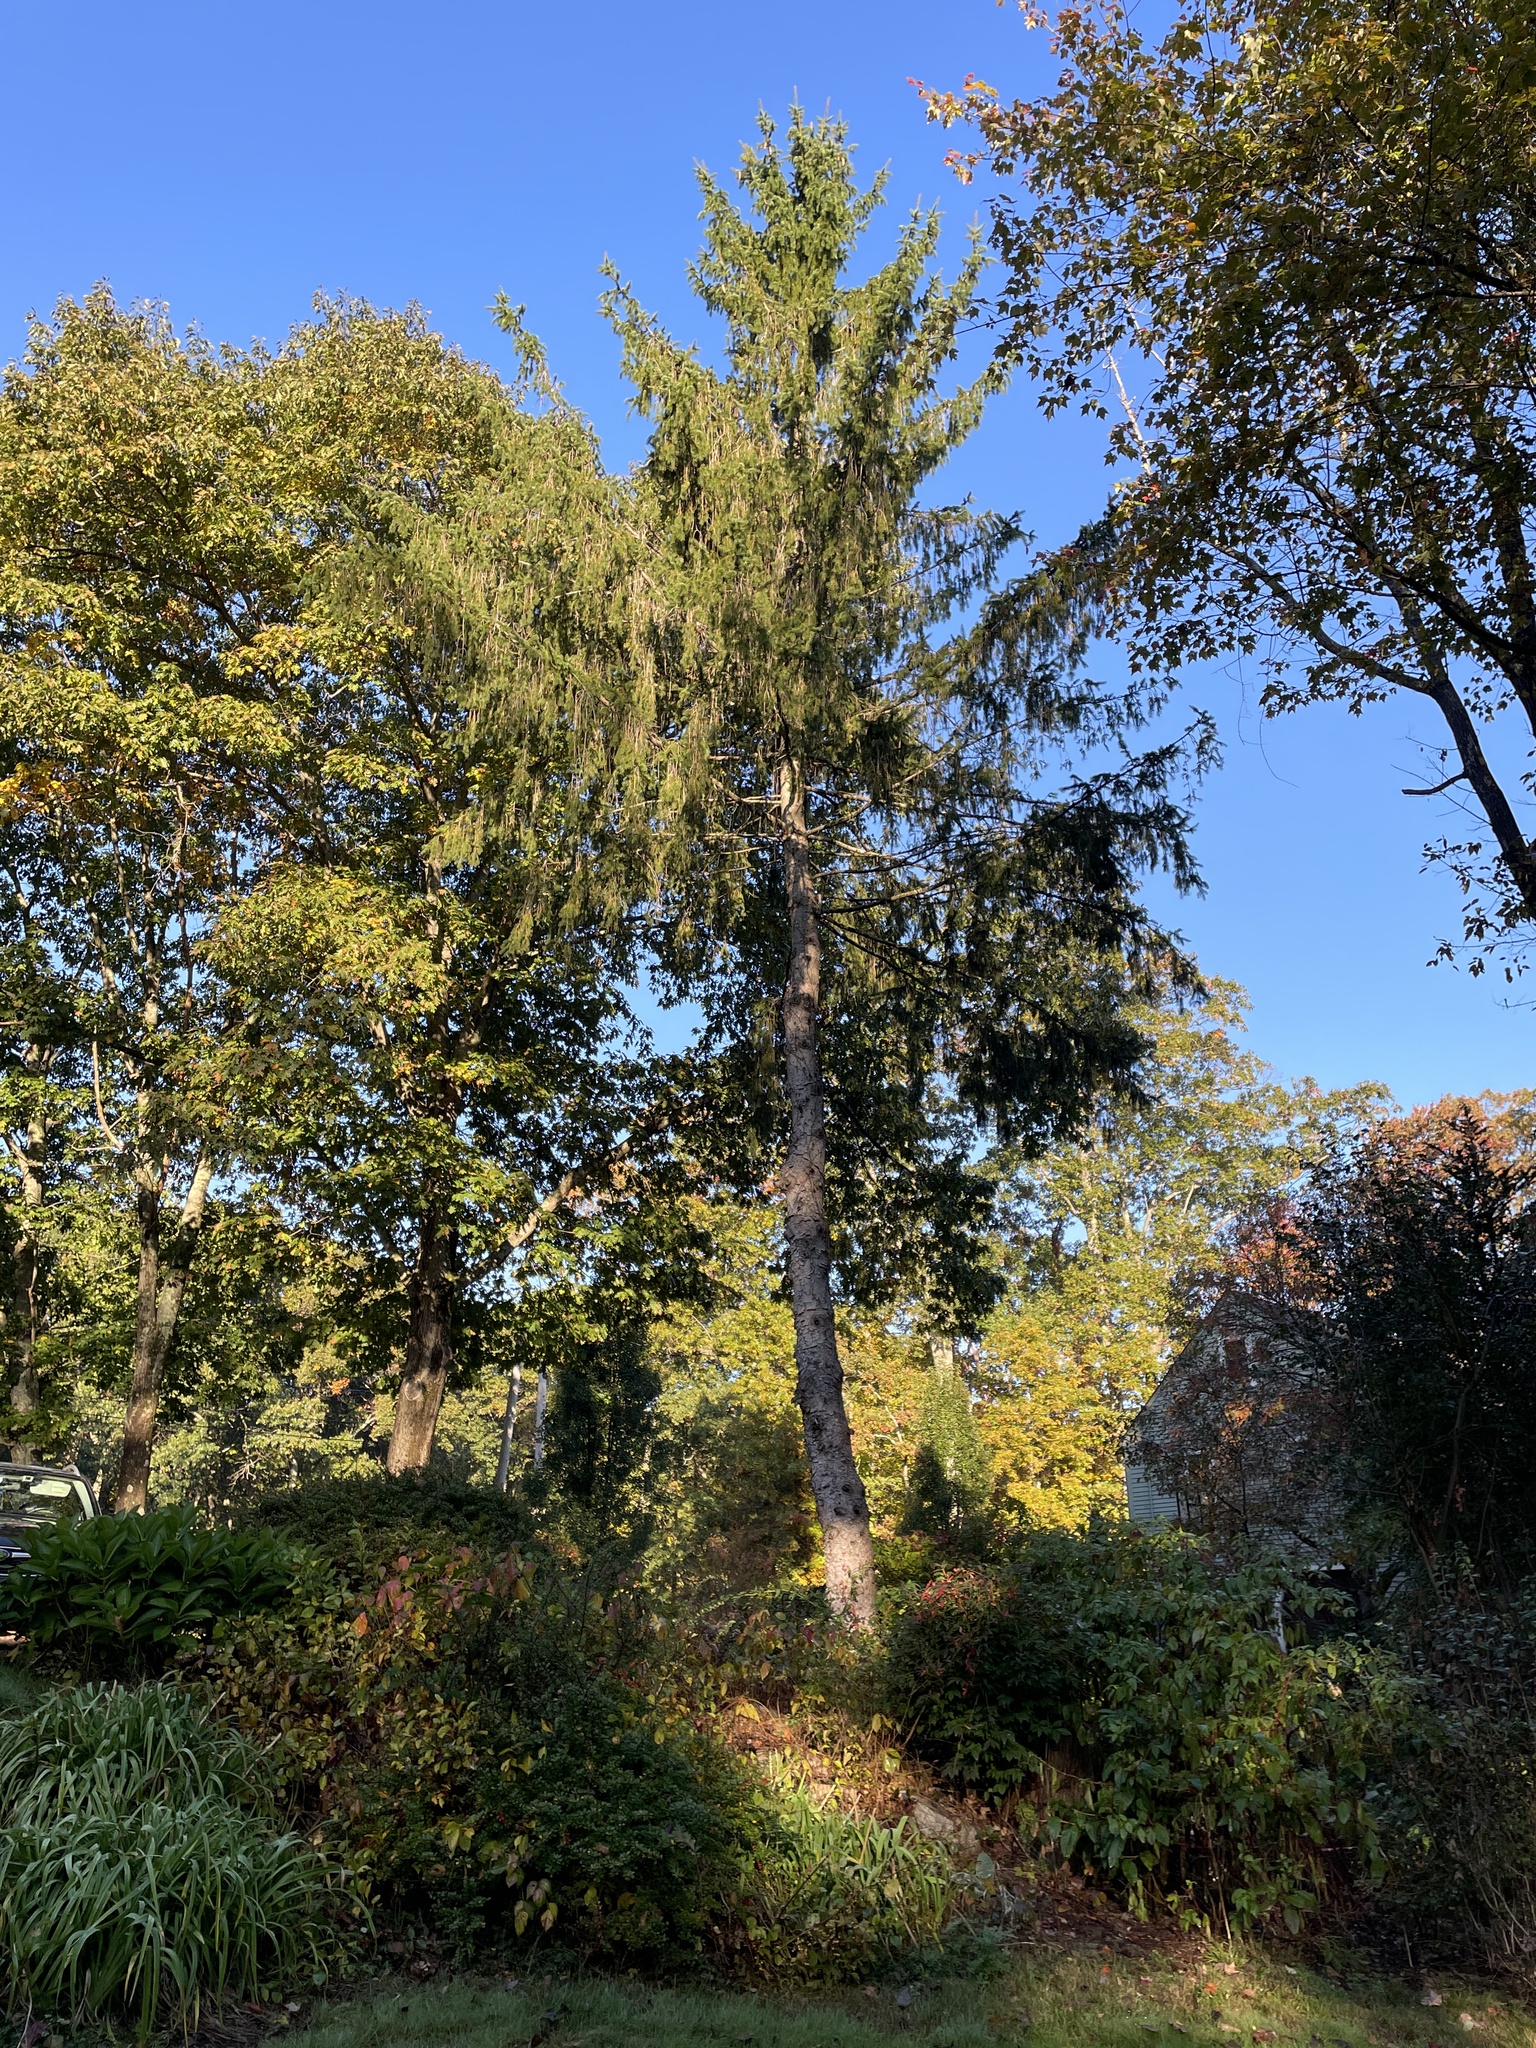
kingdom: Plantae
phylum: Tracheophyta
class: Pinopsida
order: Pinales
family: Pinaceae
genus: Picea
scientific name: Picea abies
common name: Norway spruce
